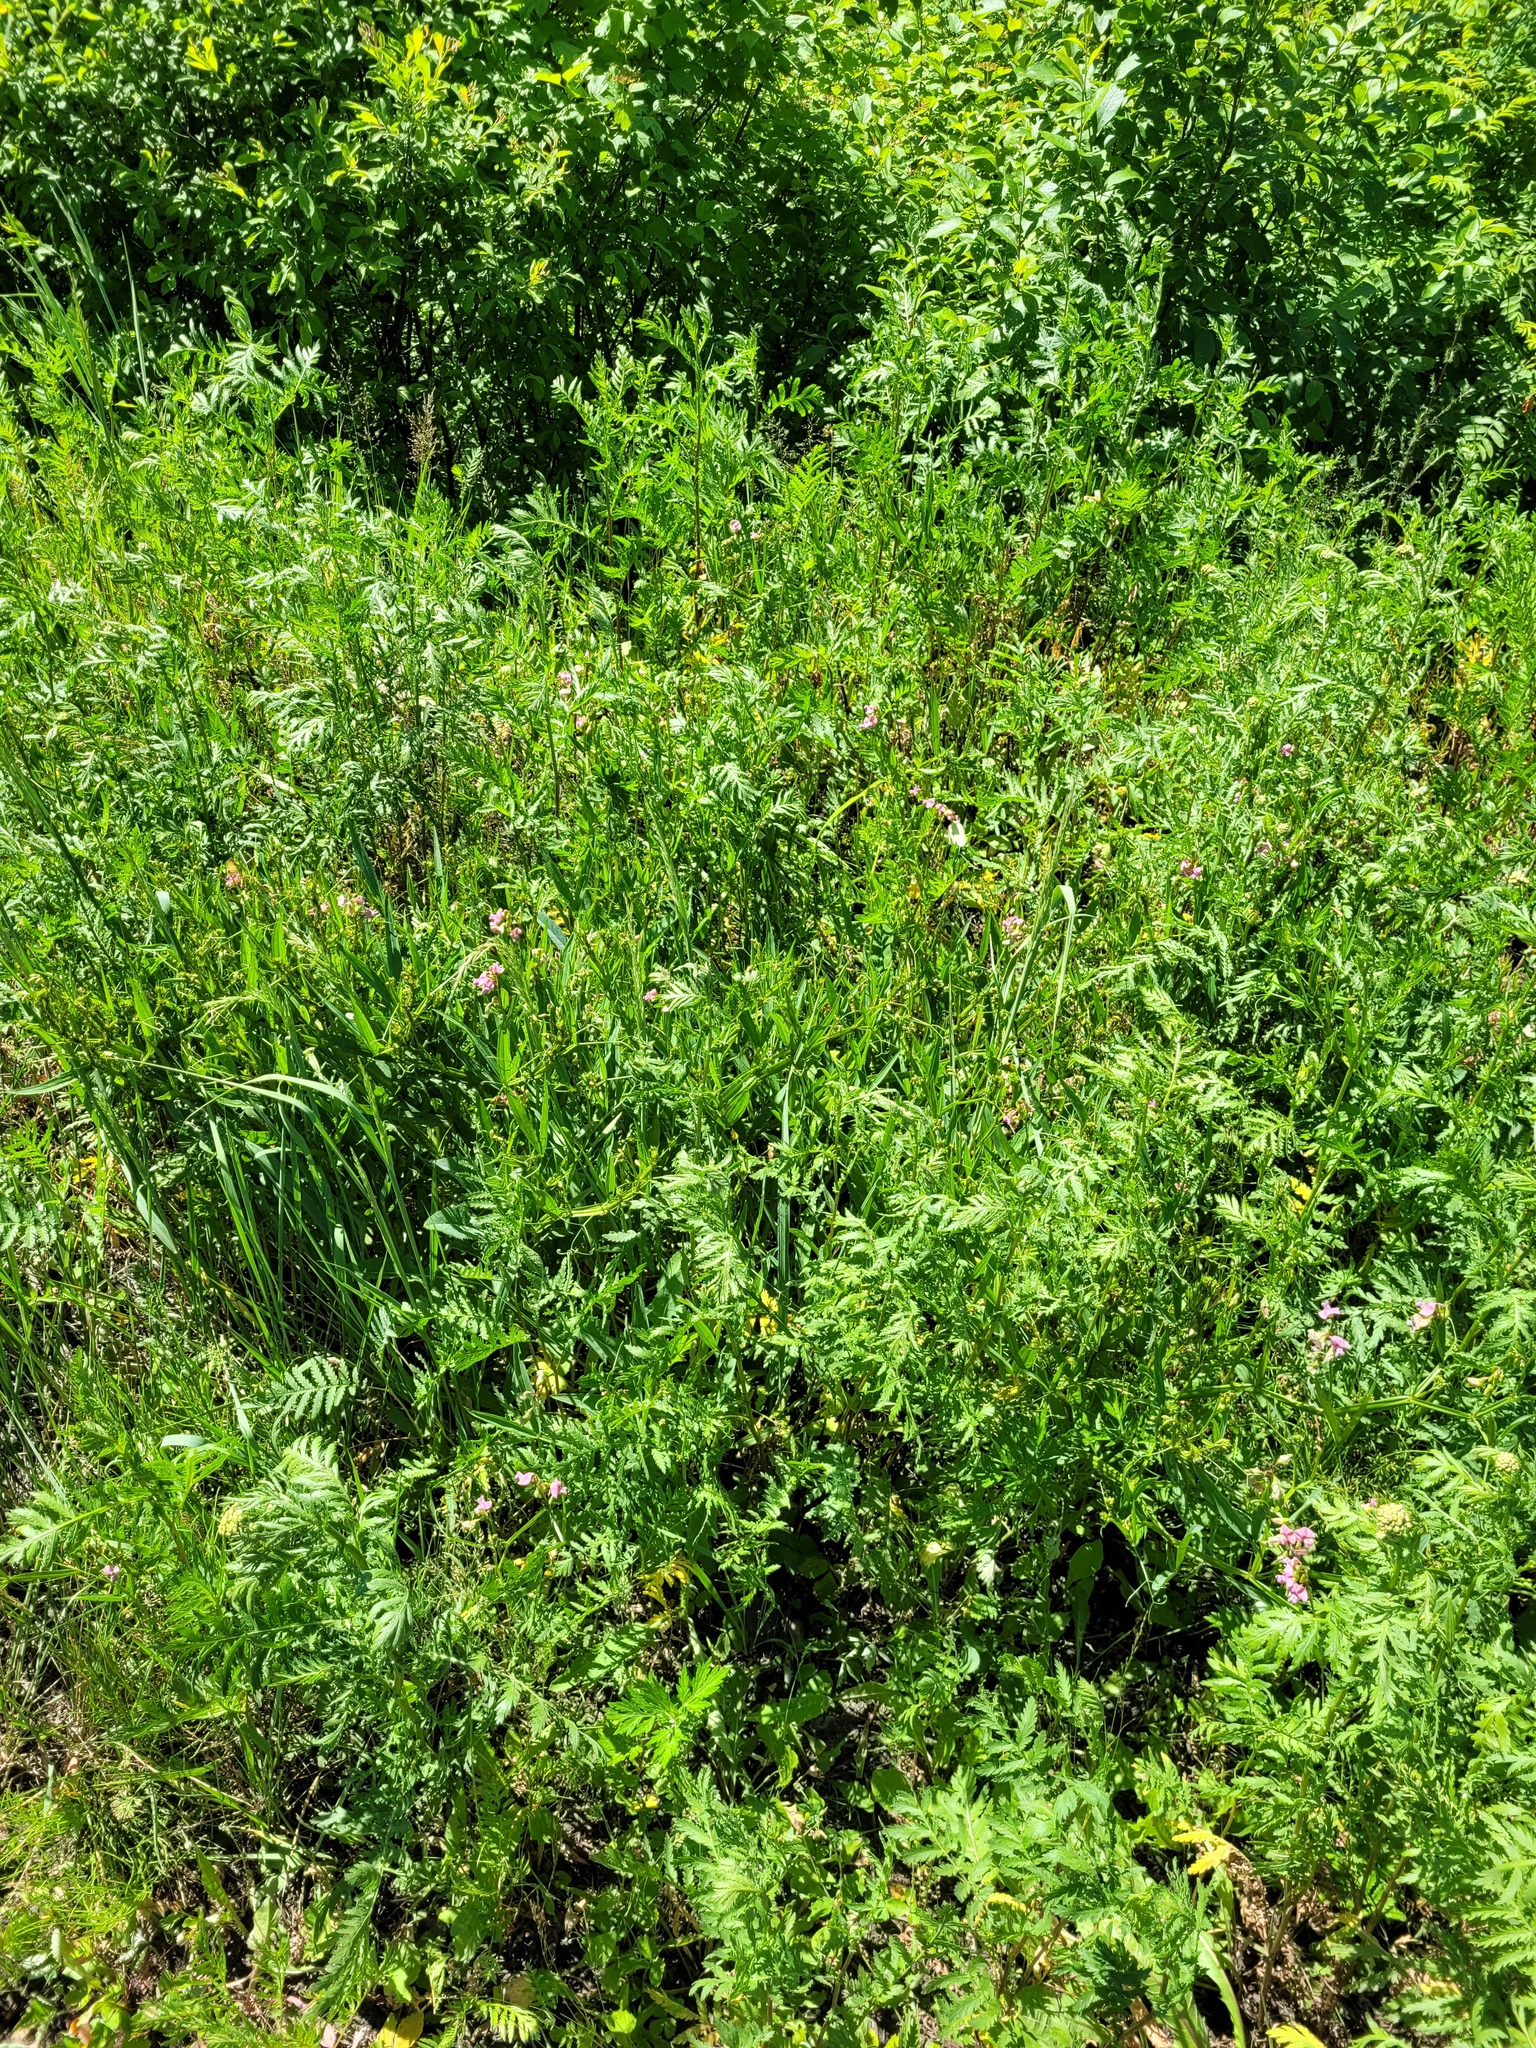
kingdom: Plantae
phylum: Tracheophyta
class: Magnoliopsida
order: Fabales
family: Fabaceae
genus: Lathyrus
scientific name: Lathyrus sylvestris
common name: Flat pea
